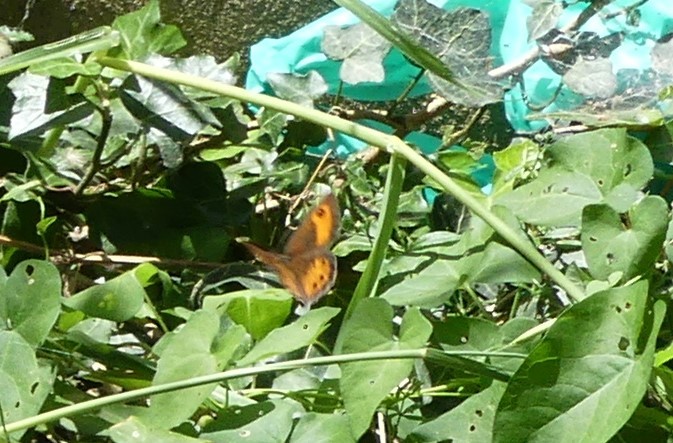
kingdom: Animalia
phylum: Arthropoda
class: Insecta
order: Lepidoptera
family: Nymphalidae
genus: Pyronia
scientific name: Pyronia bathseba
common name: Spanish gatekeeper
